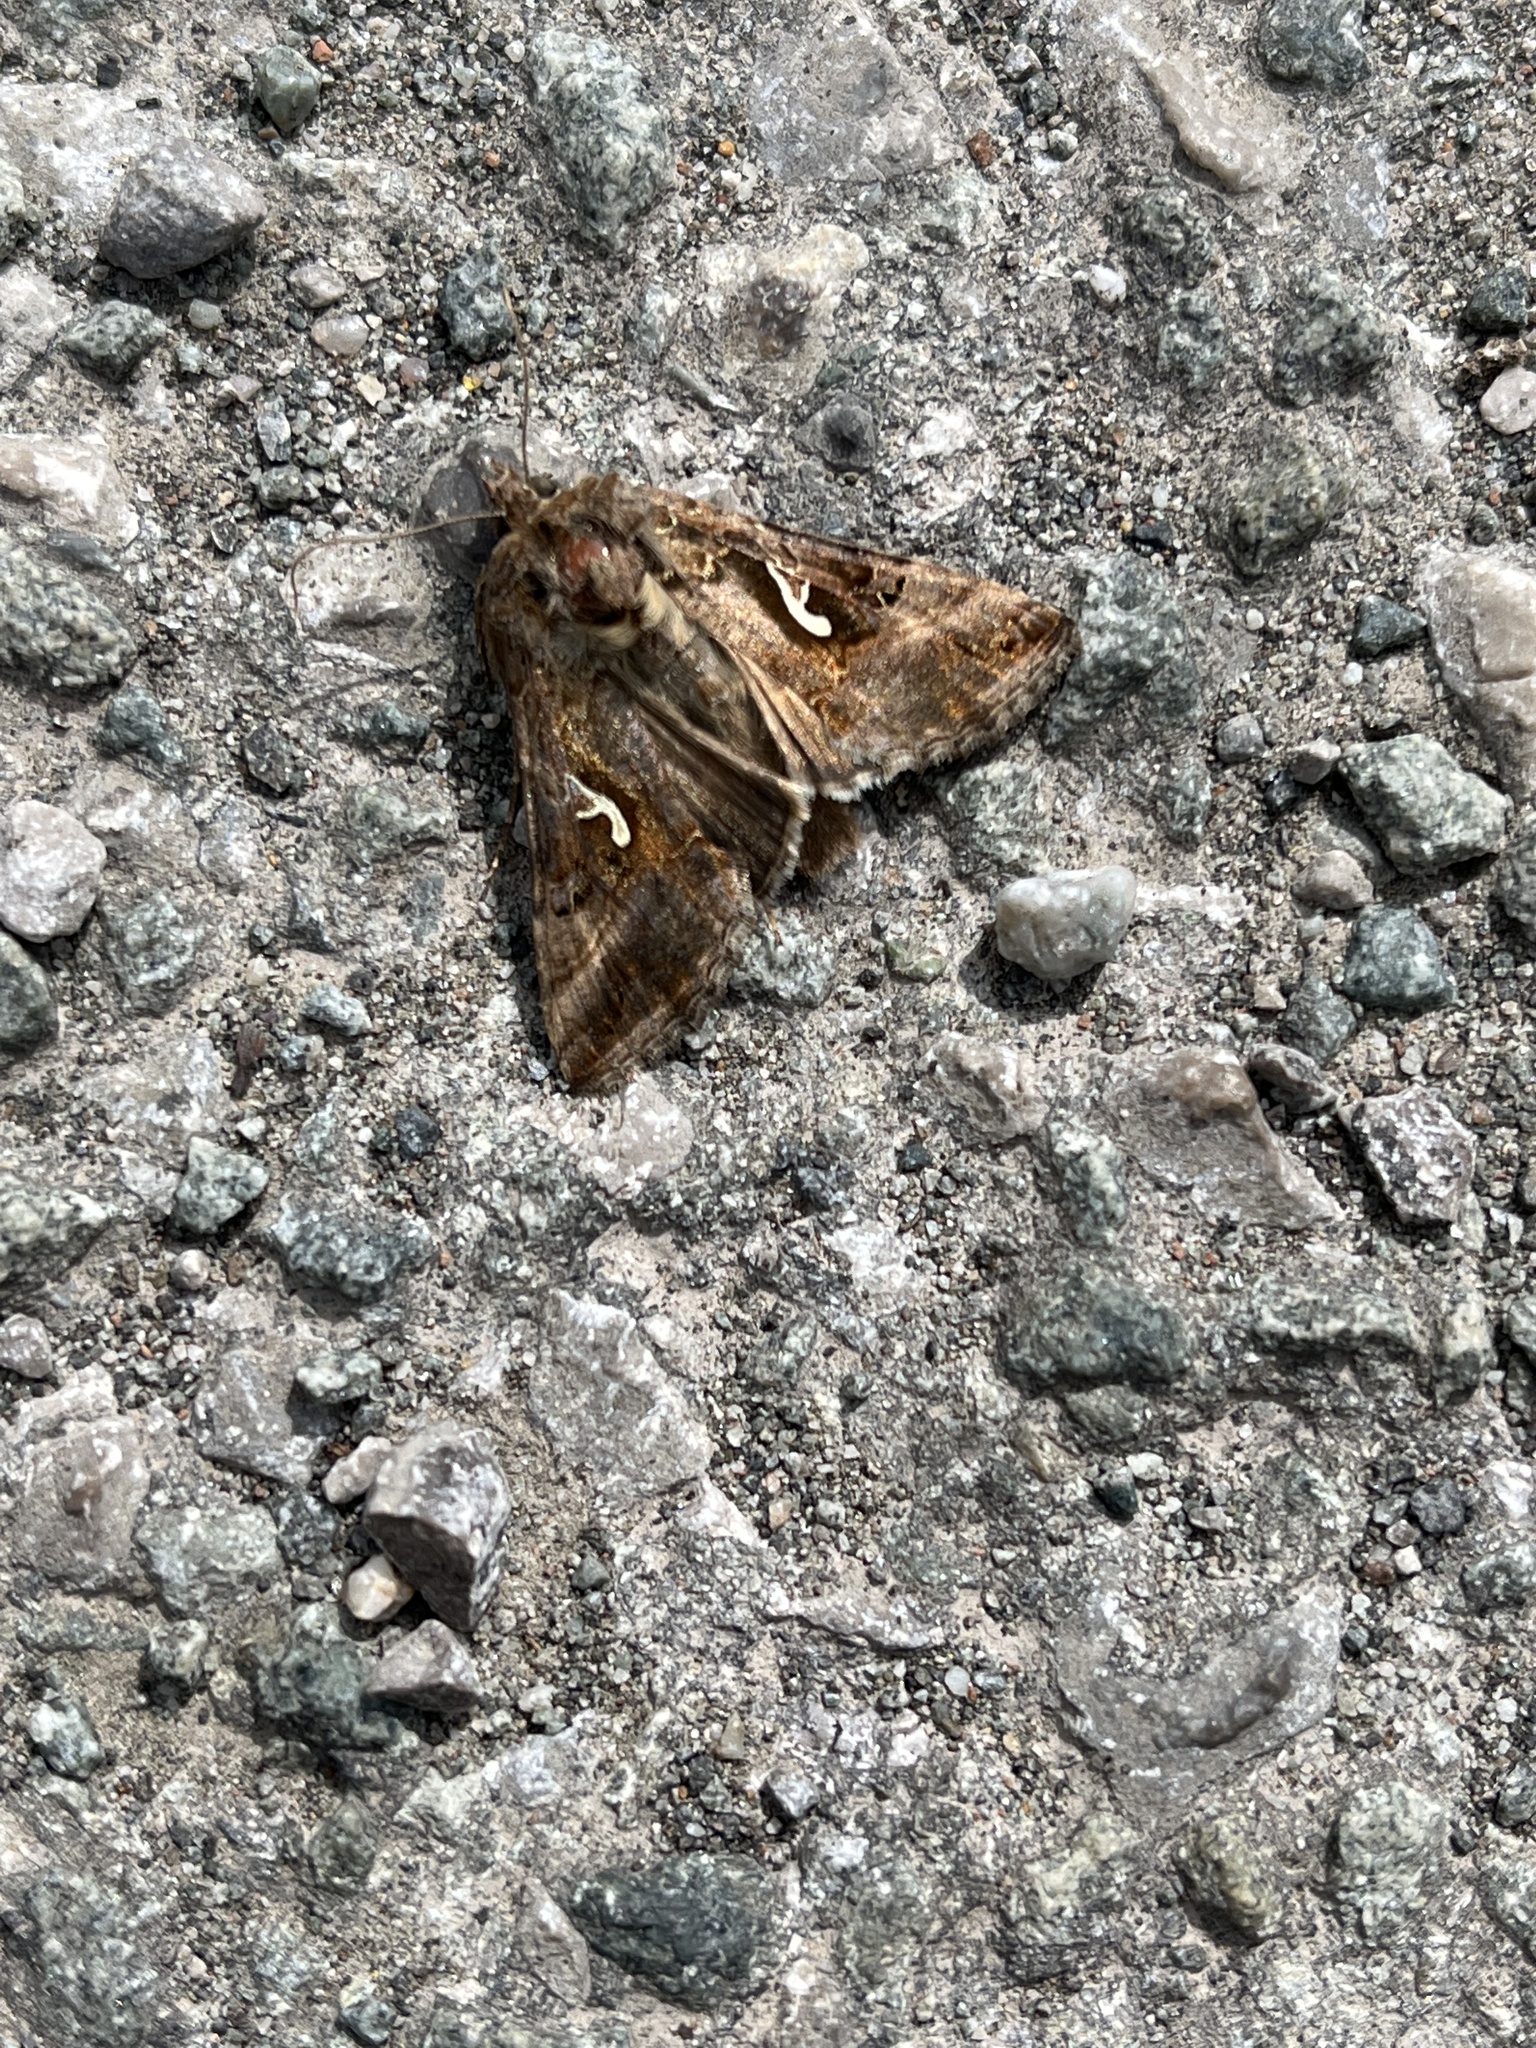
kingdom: Animalia
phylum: Arthropoda
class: Insecta
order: Lepidoptera
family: Noctuidae
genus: Autographa
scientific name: Autographa gamma
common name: Silver y
